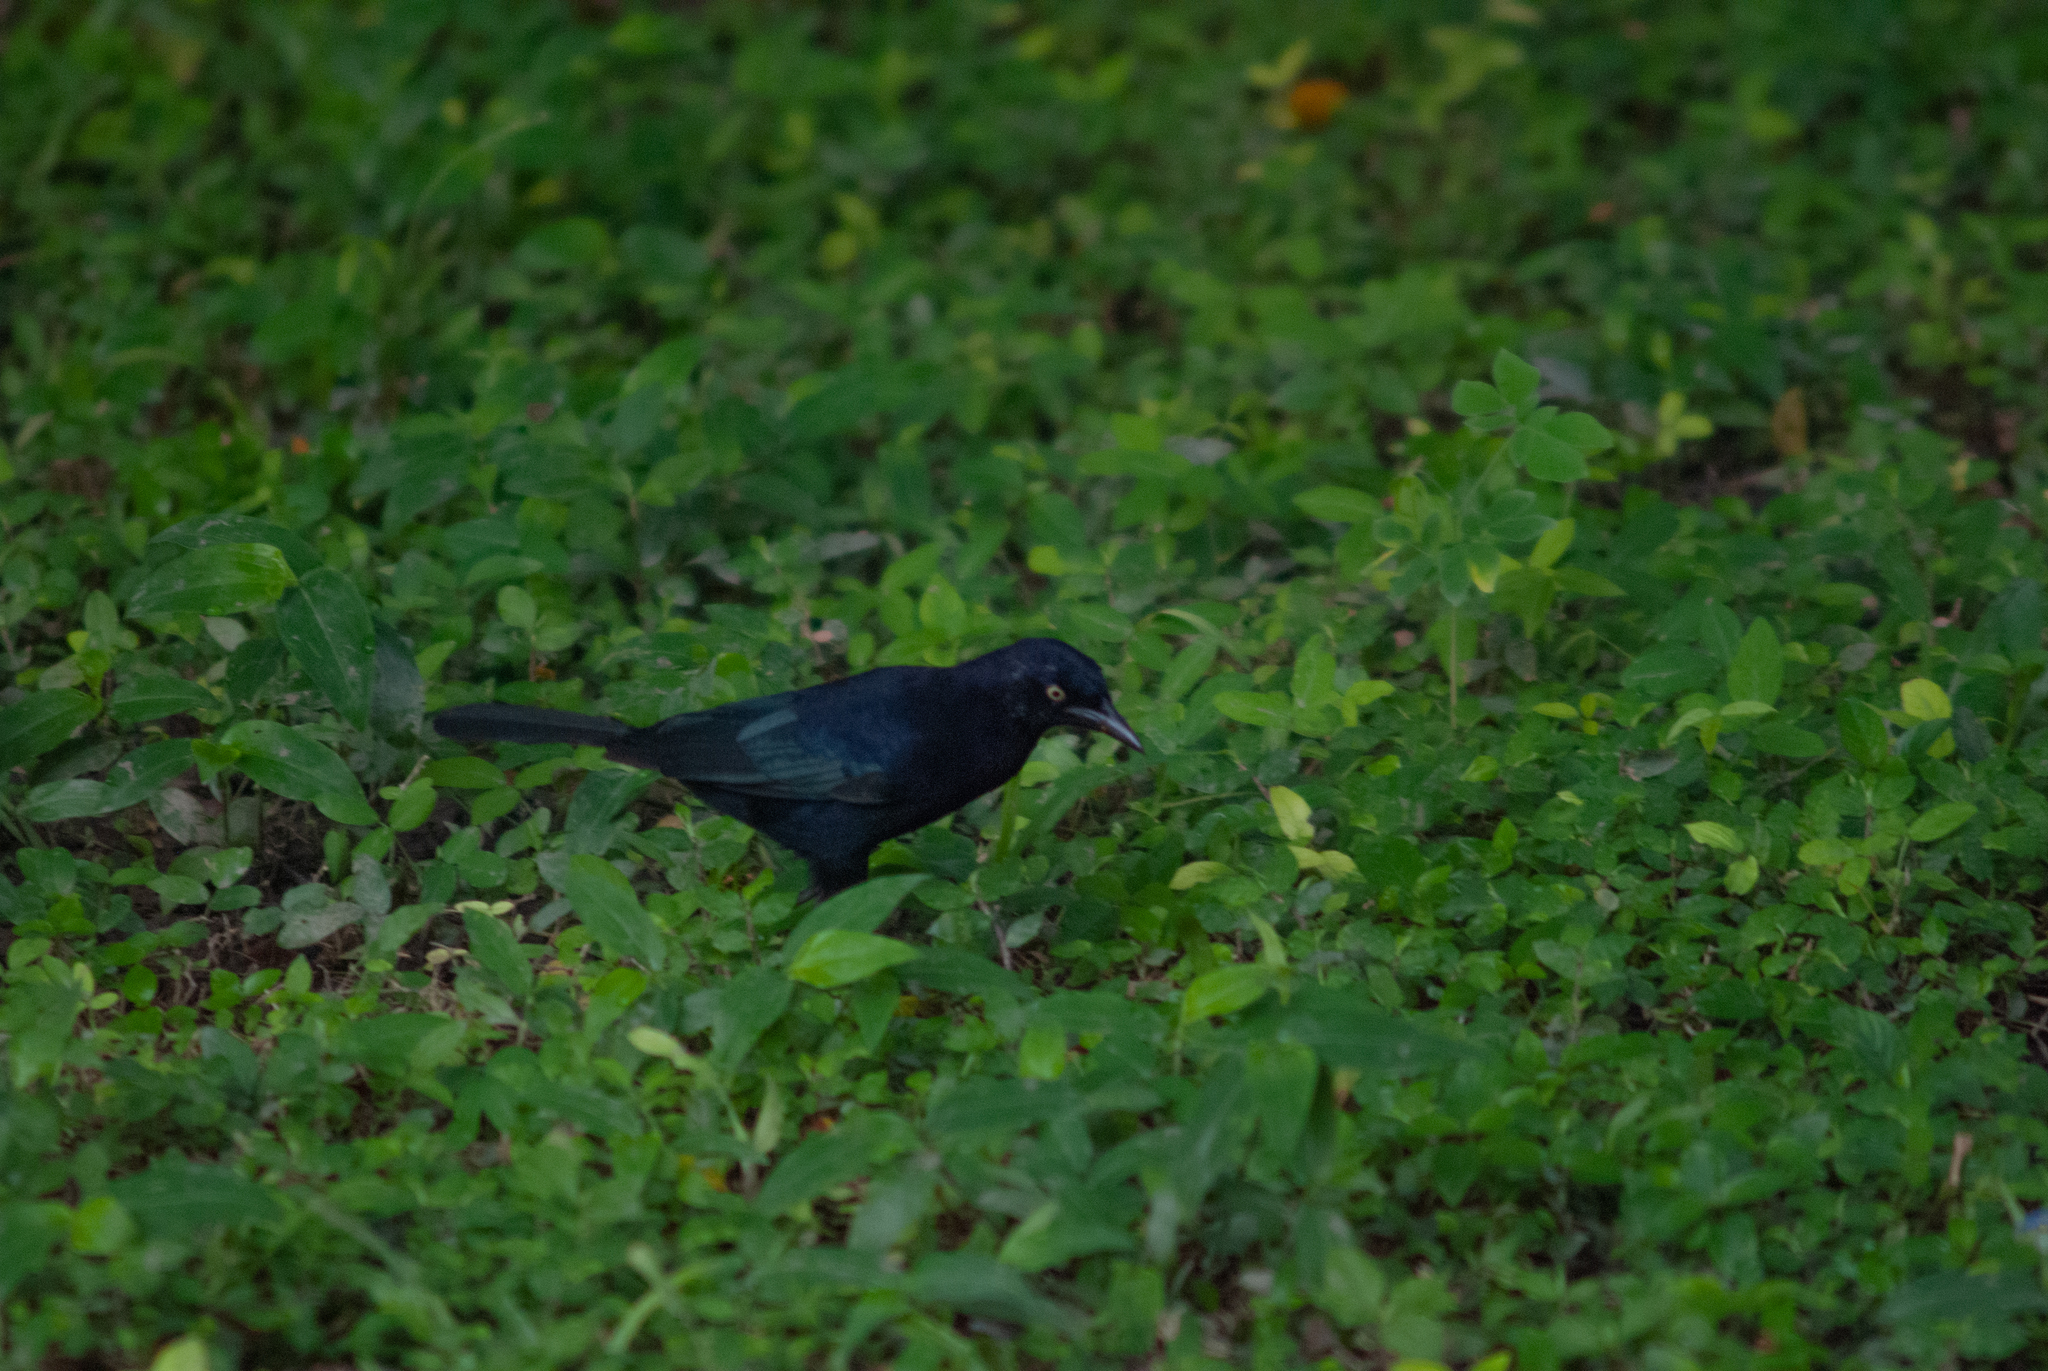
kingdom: Animalia
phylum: Chordata
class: Aves
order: Passeriformes
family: Icteridae
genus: Quiscalus
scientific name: Quiscalus lugubris
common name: Carib grackle
